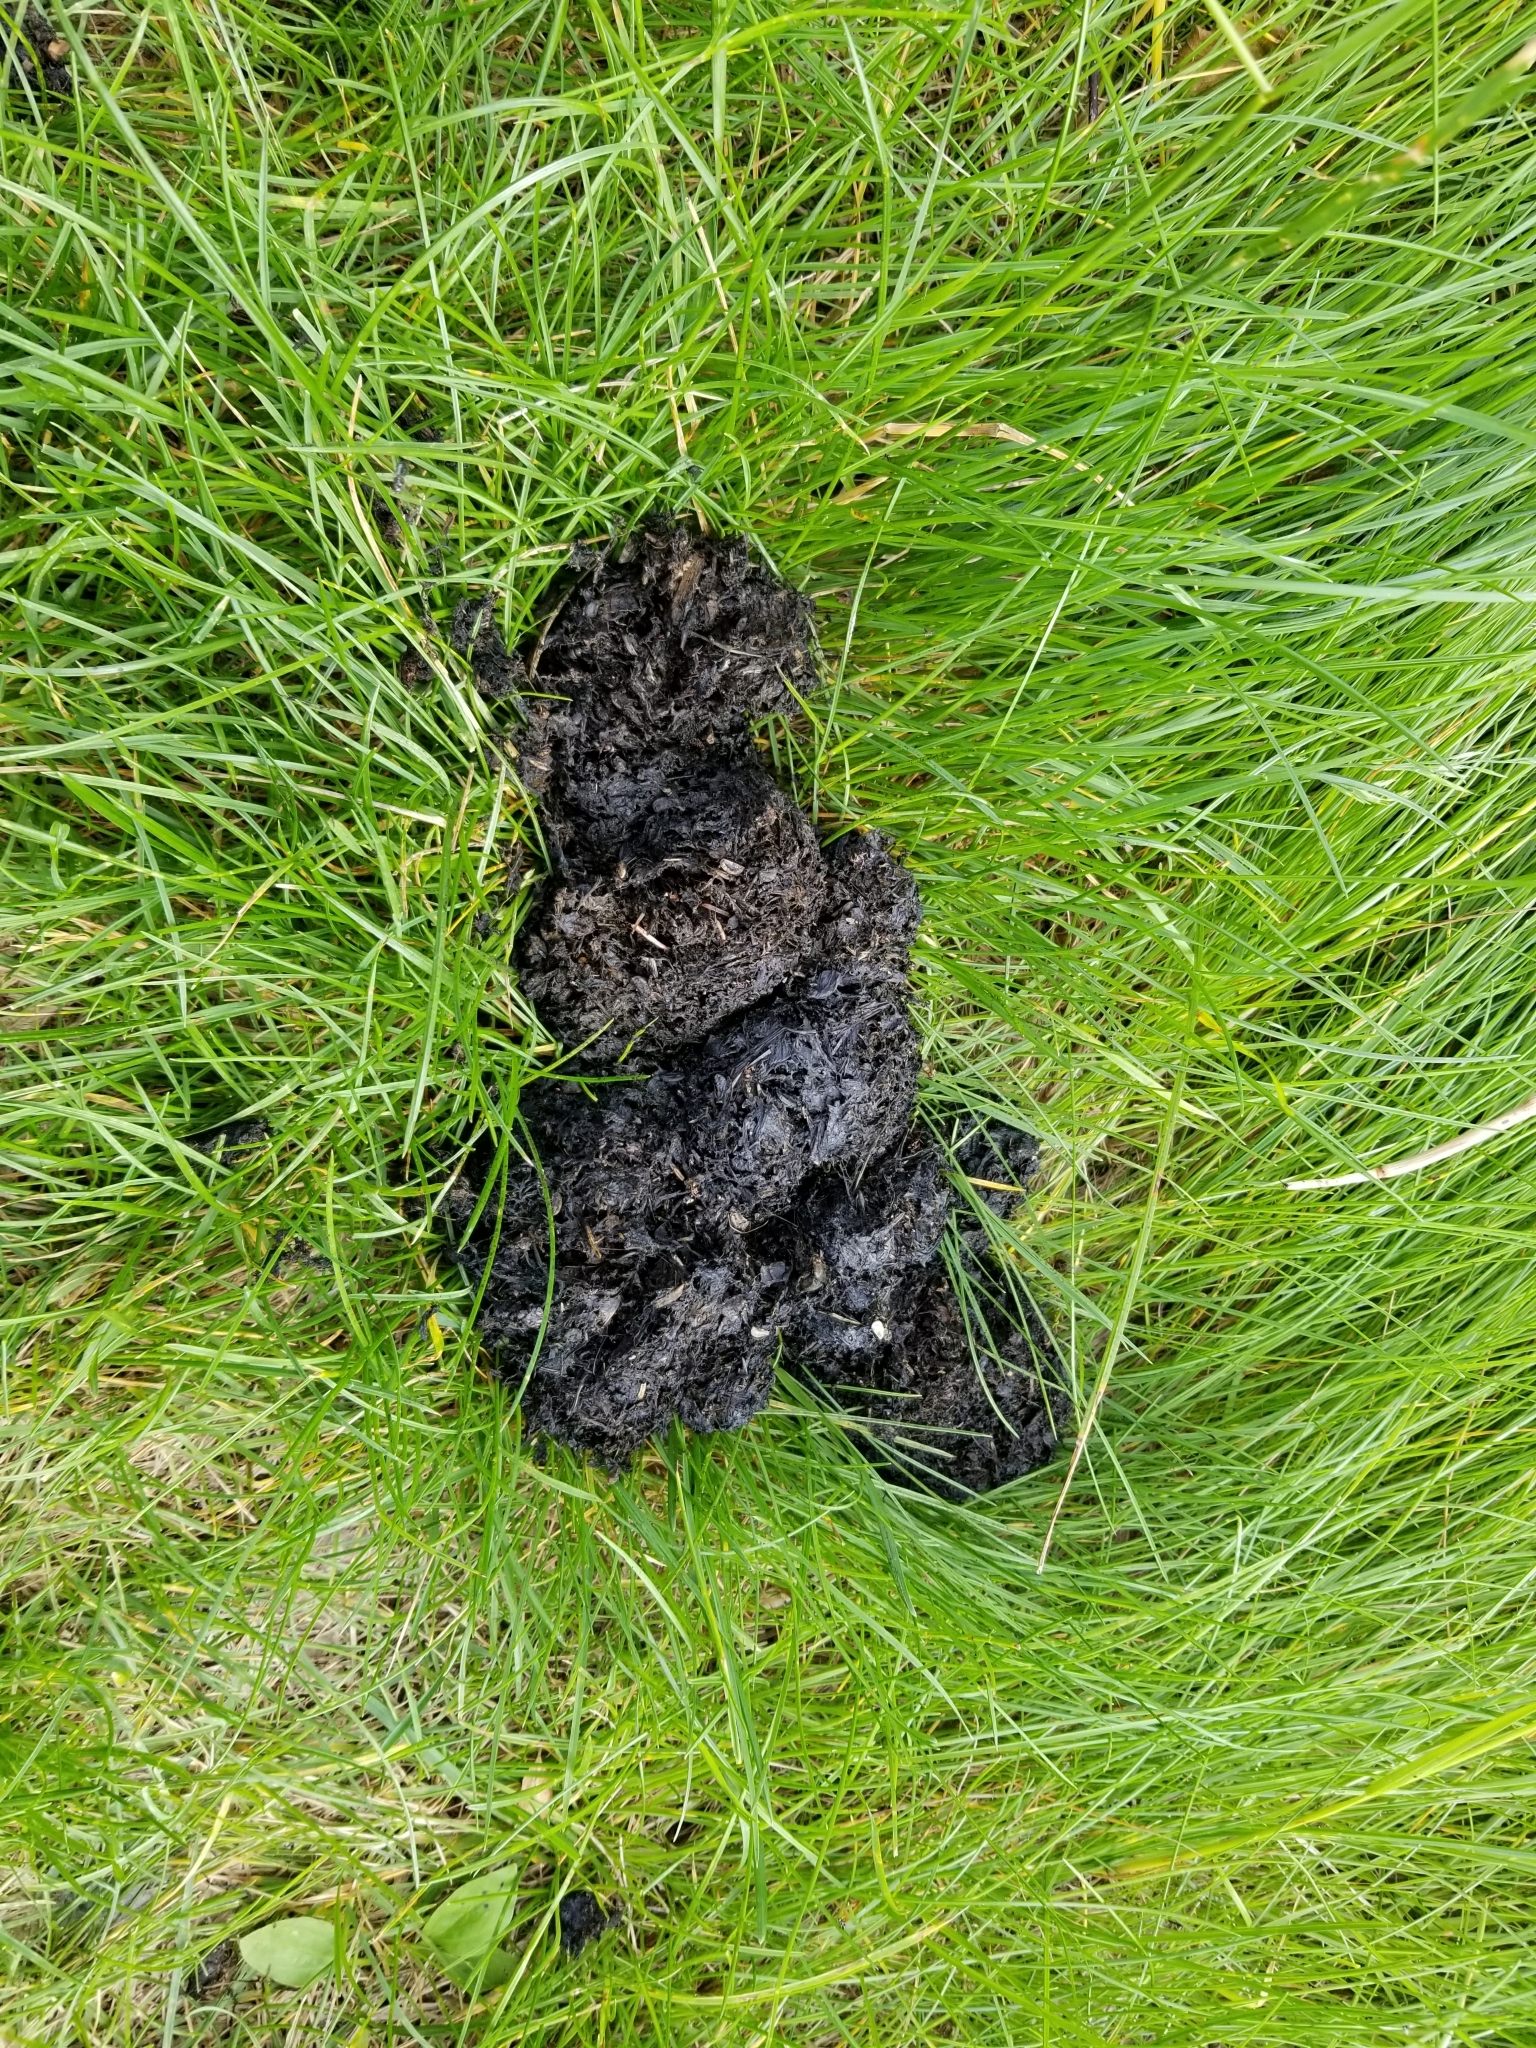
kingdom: Animalia
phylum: Chordata
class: Mammalia
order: Carnivora
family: Ursidae
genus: Ursus
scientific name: Ursus americanus
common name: American black bear
